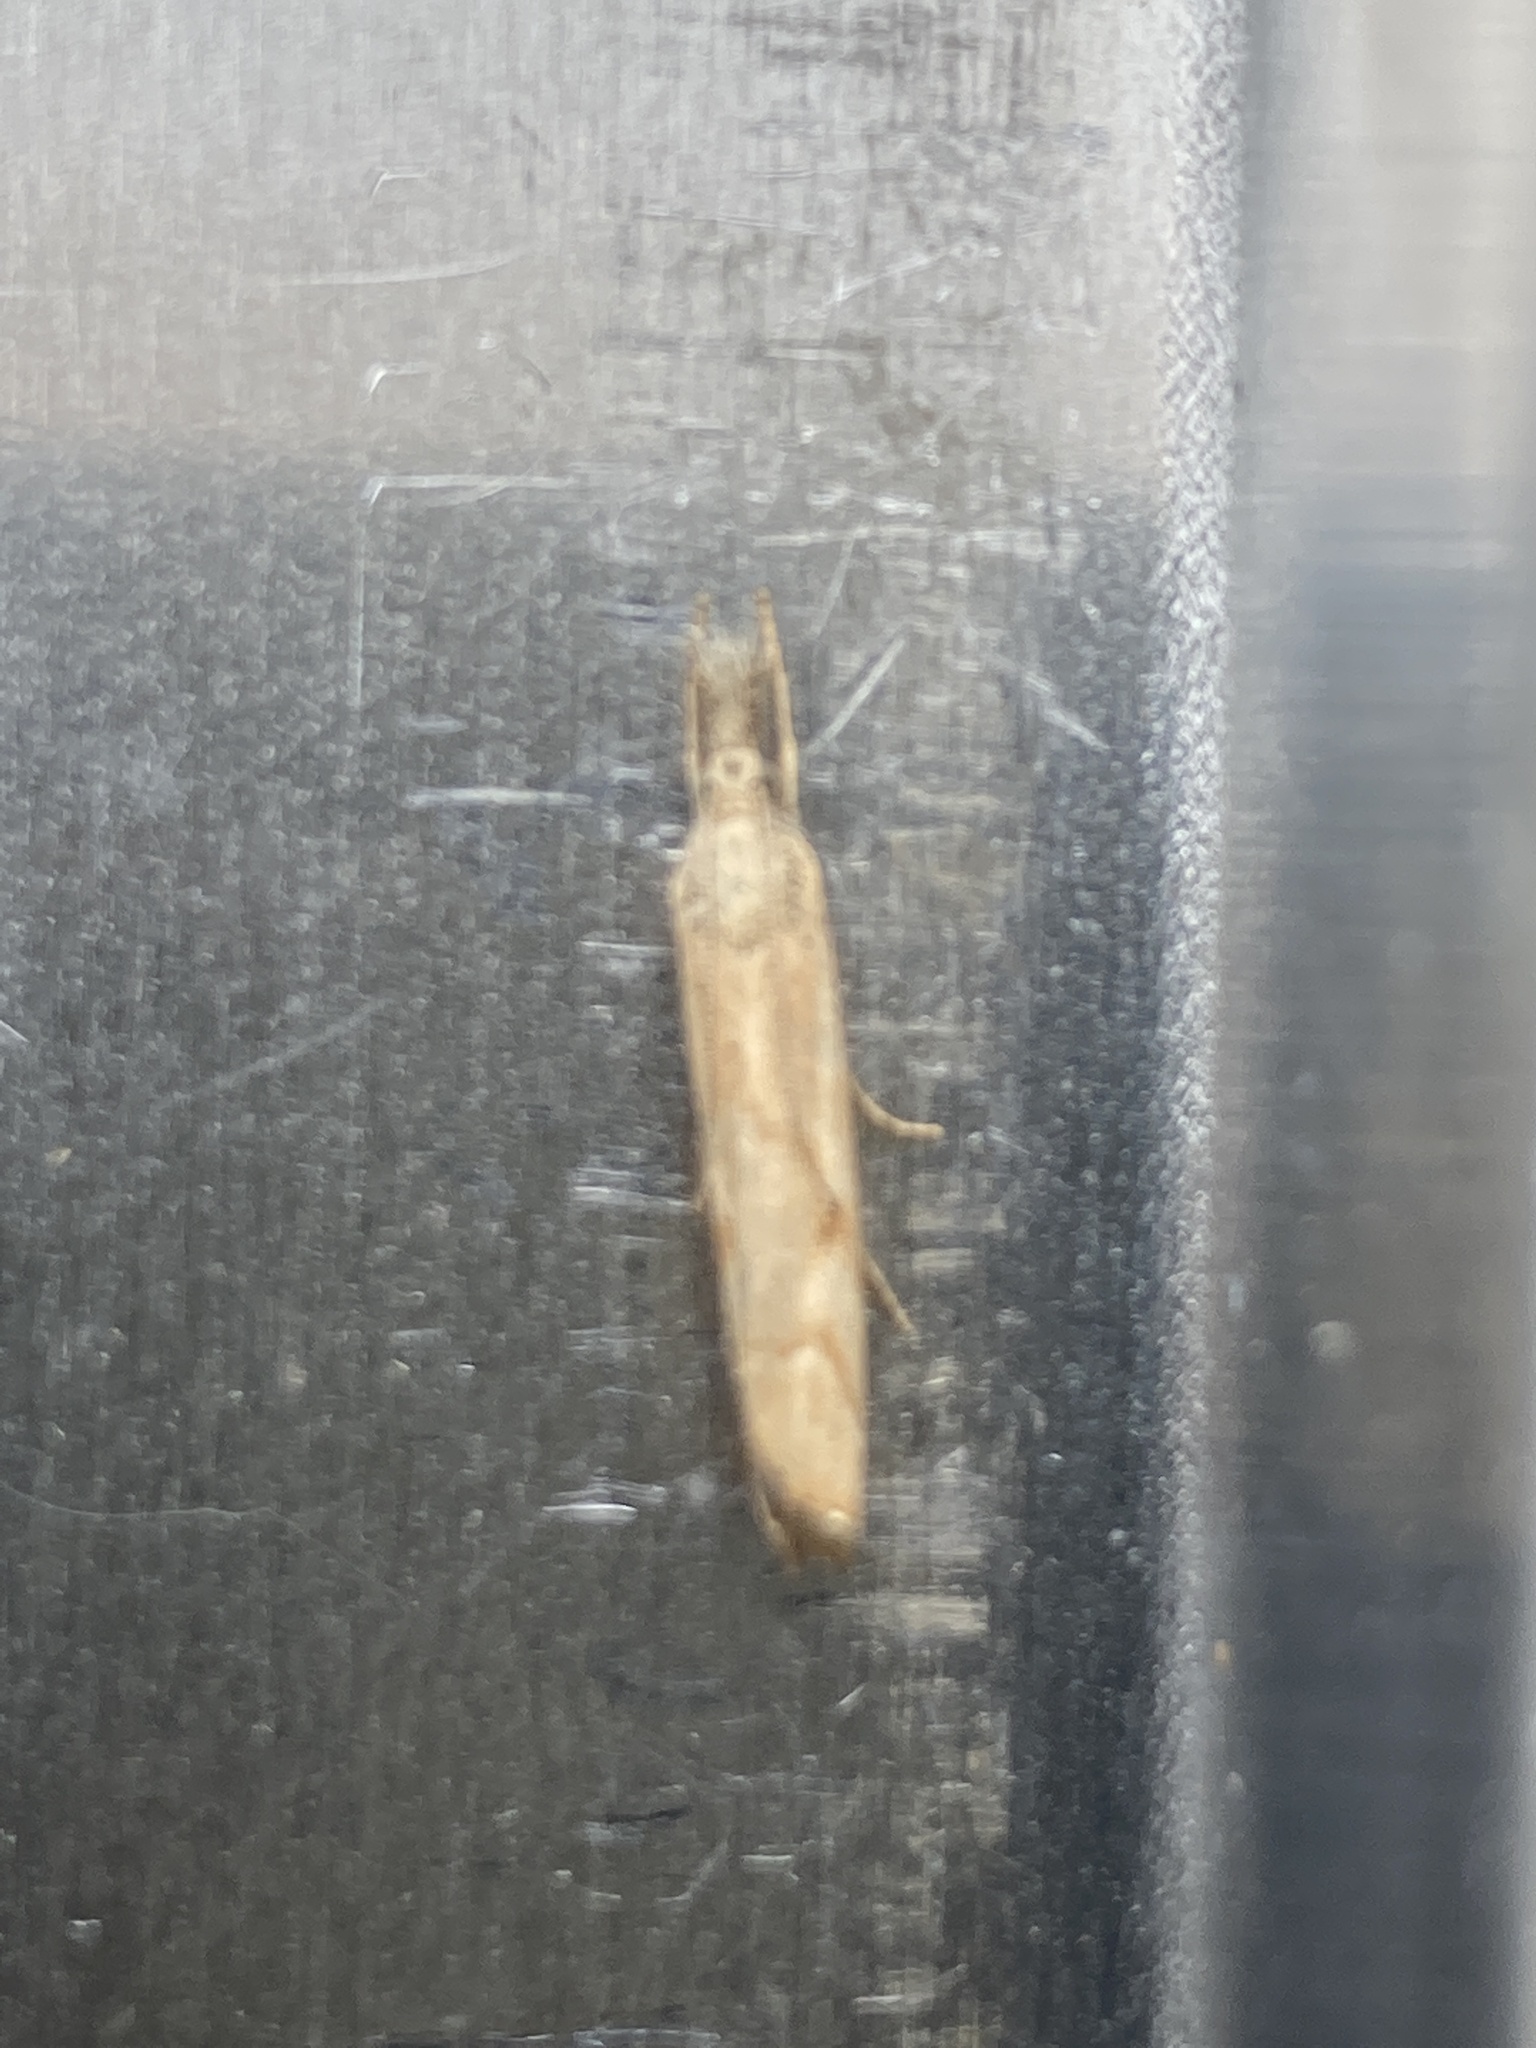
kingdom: Animalia
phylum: Arthropoda
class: Insecta
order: Lepidoptera
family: Crambidae
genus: Agriphila
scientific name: Agriphila geniculea
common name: Elbow-stripe grass-veneer
